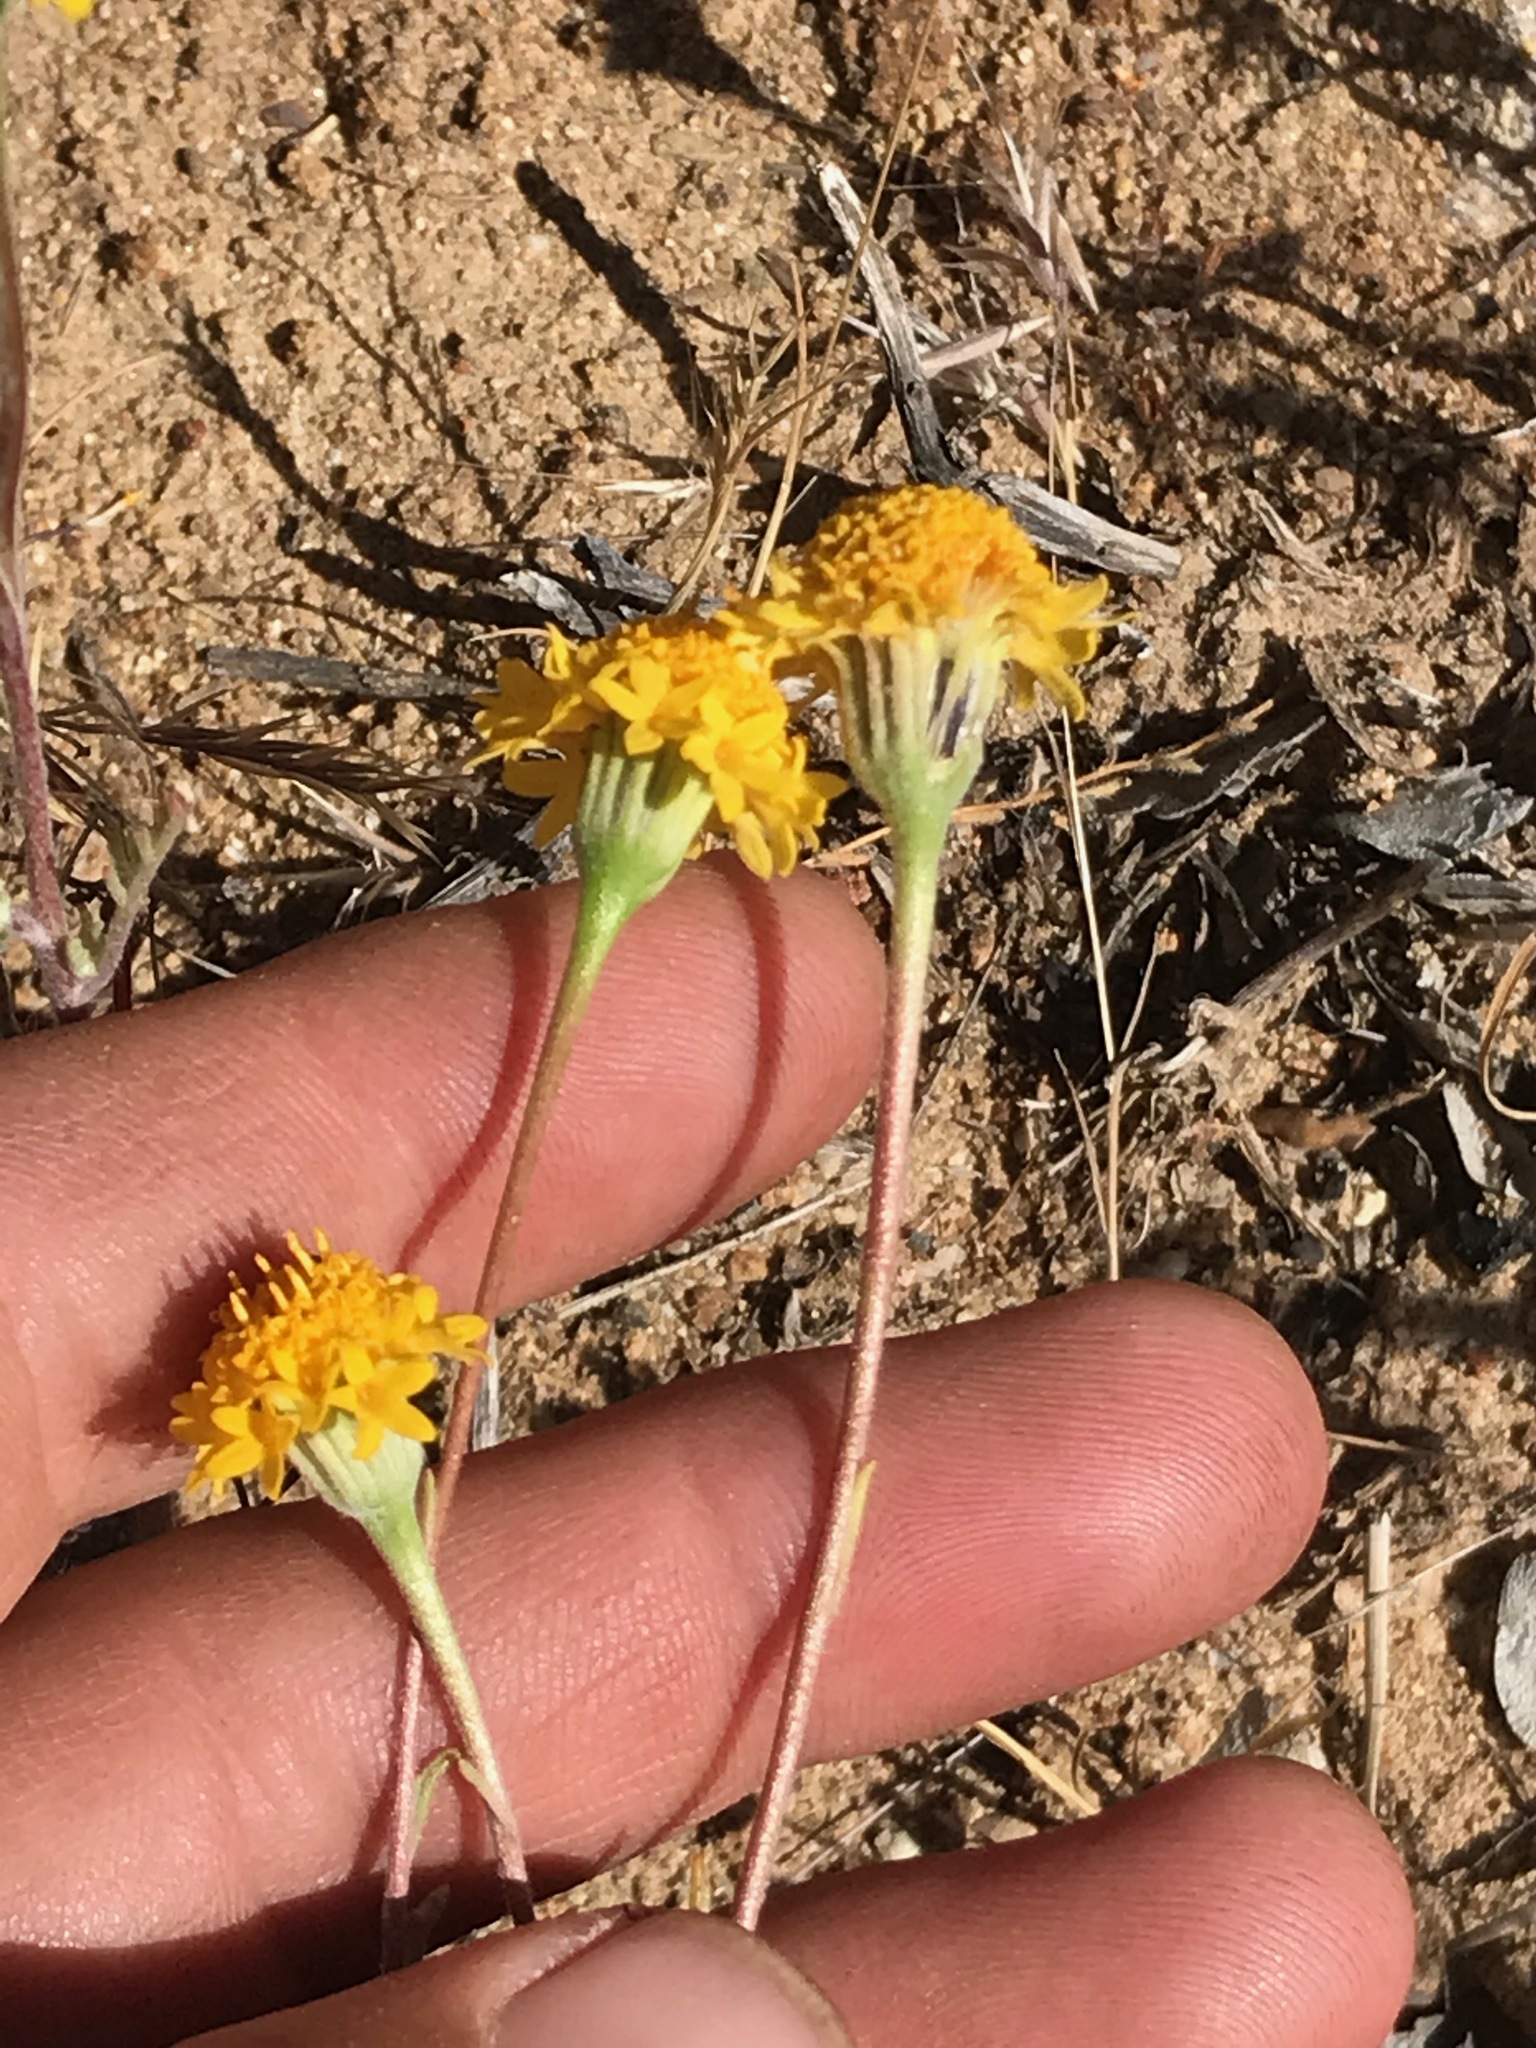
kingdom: Plantae
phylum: Tracheophyta
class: Magnoliopsida
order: Asterales
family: Asteraceae
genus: Chaenactis
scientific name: Chaenactis glabriuscula
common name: Yellow pincushion
